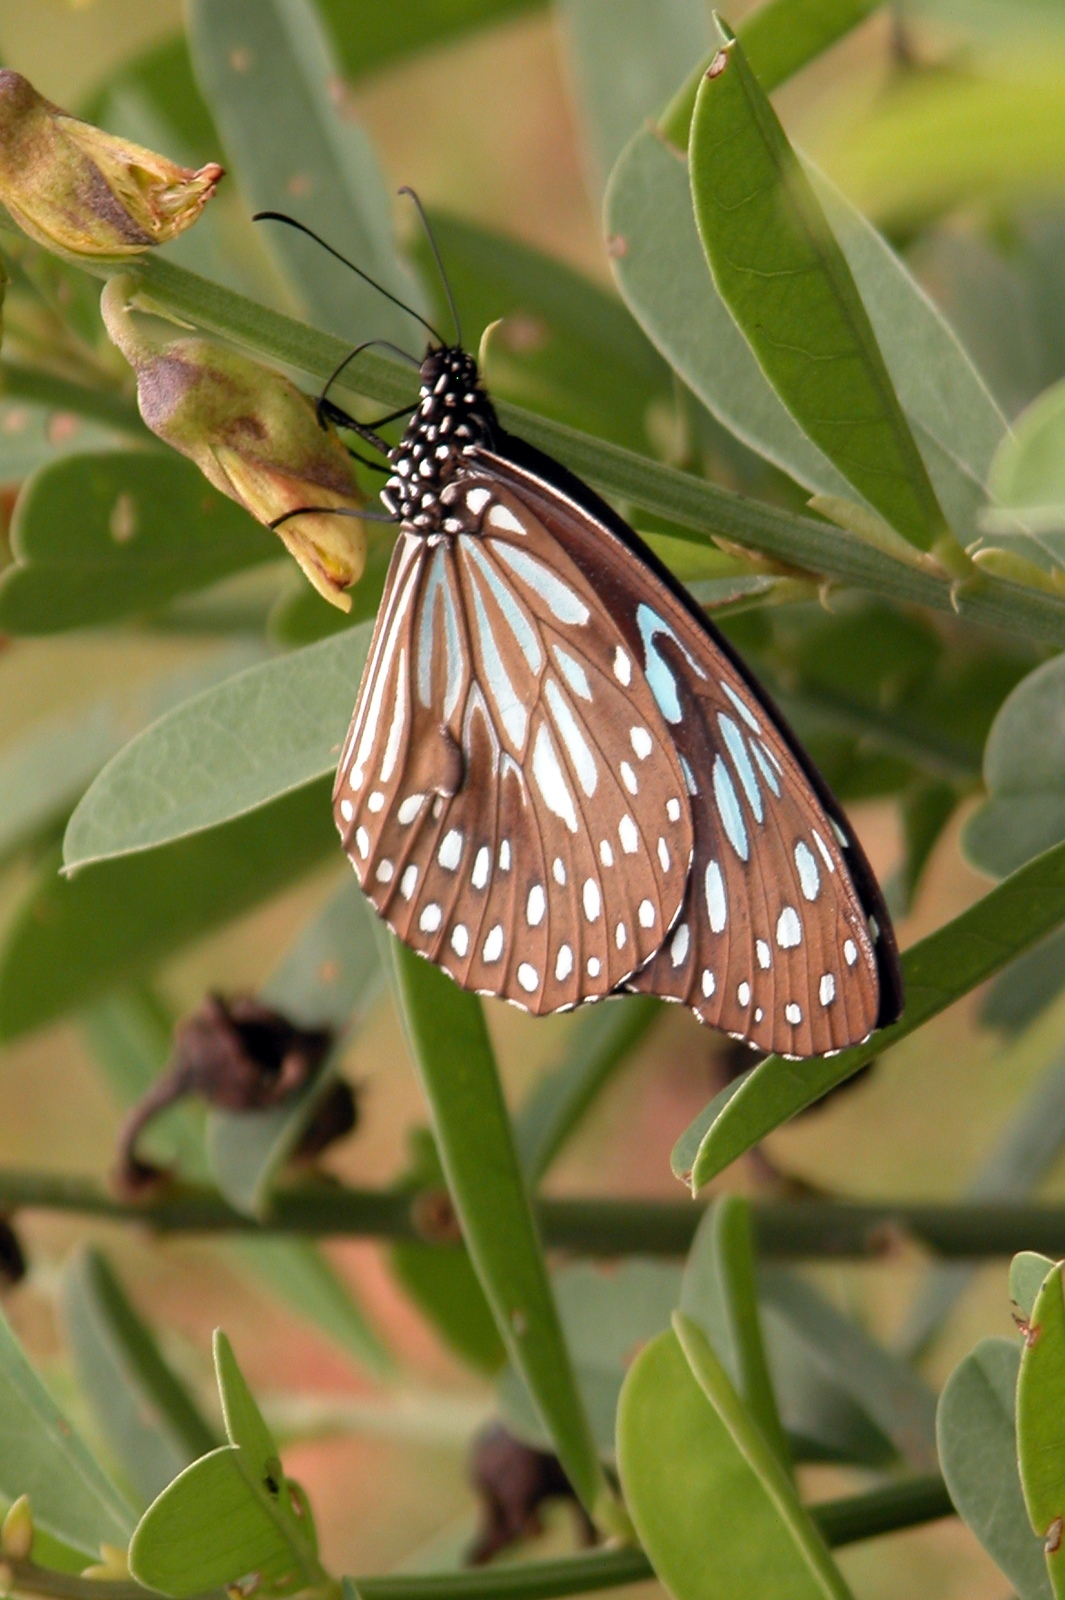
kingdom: Animalia
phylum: Arthropoda
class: Insecta
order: Lepidoptera
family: Nymphalidae
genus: Tirumala
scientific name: Tirumala septentrionis
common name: Dark blue tiger butterfly
